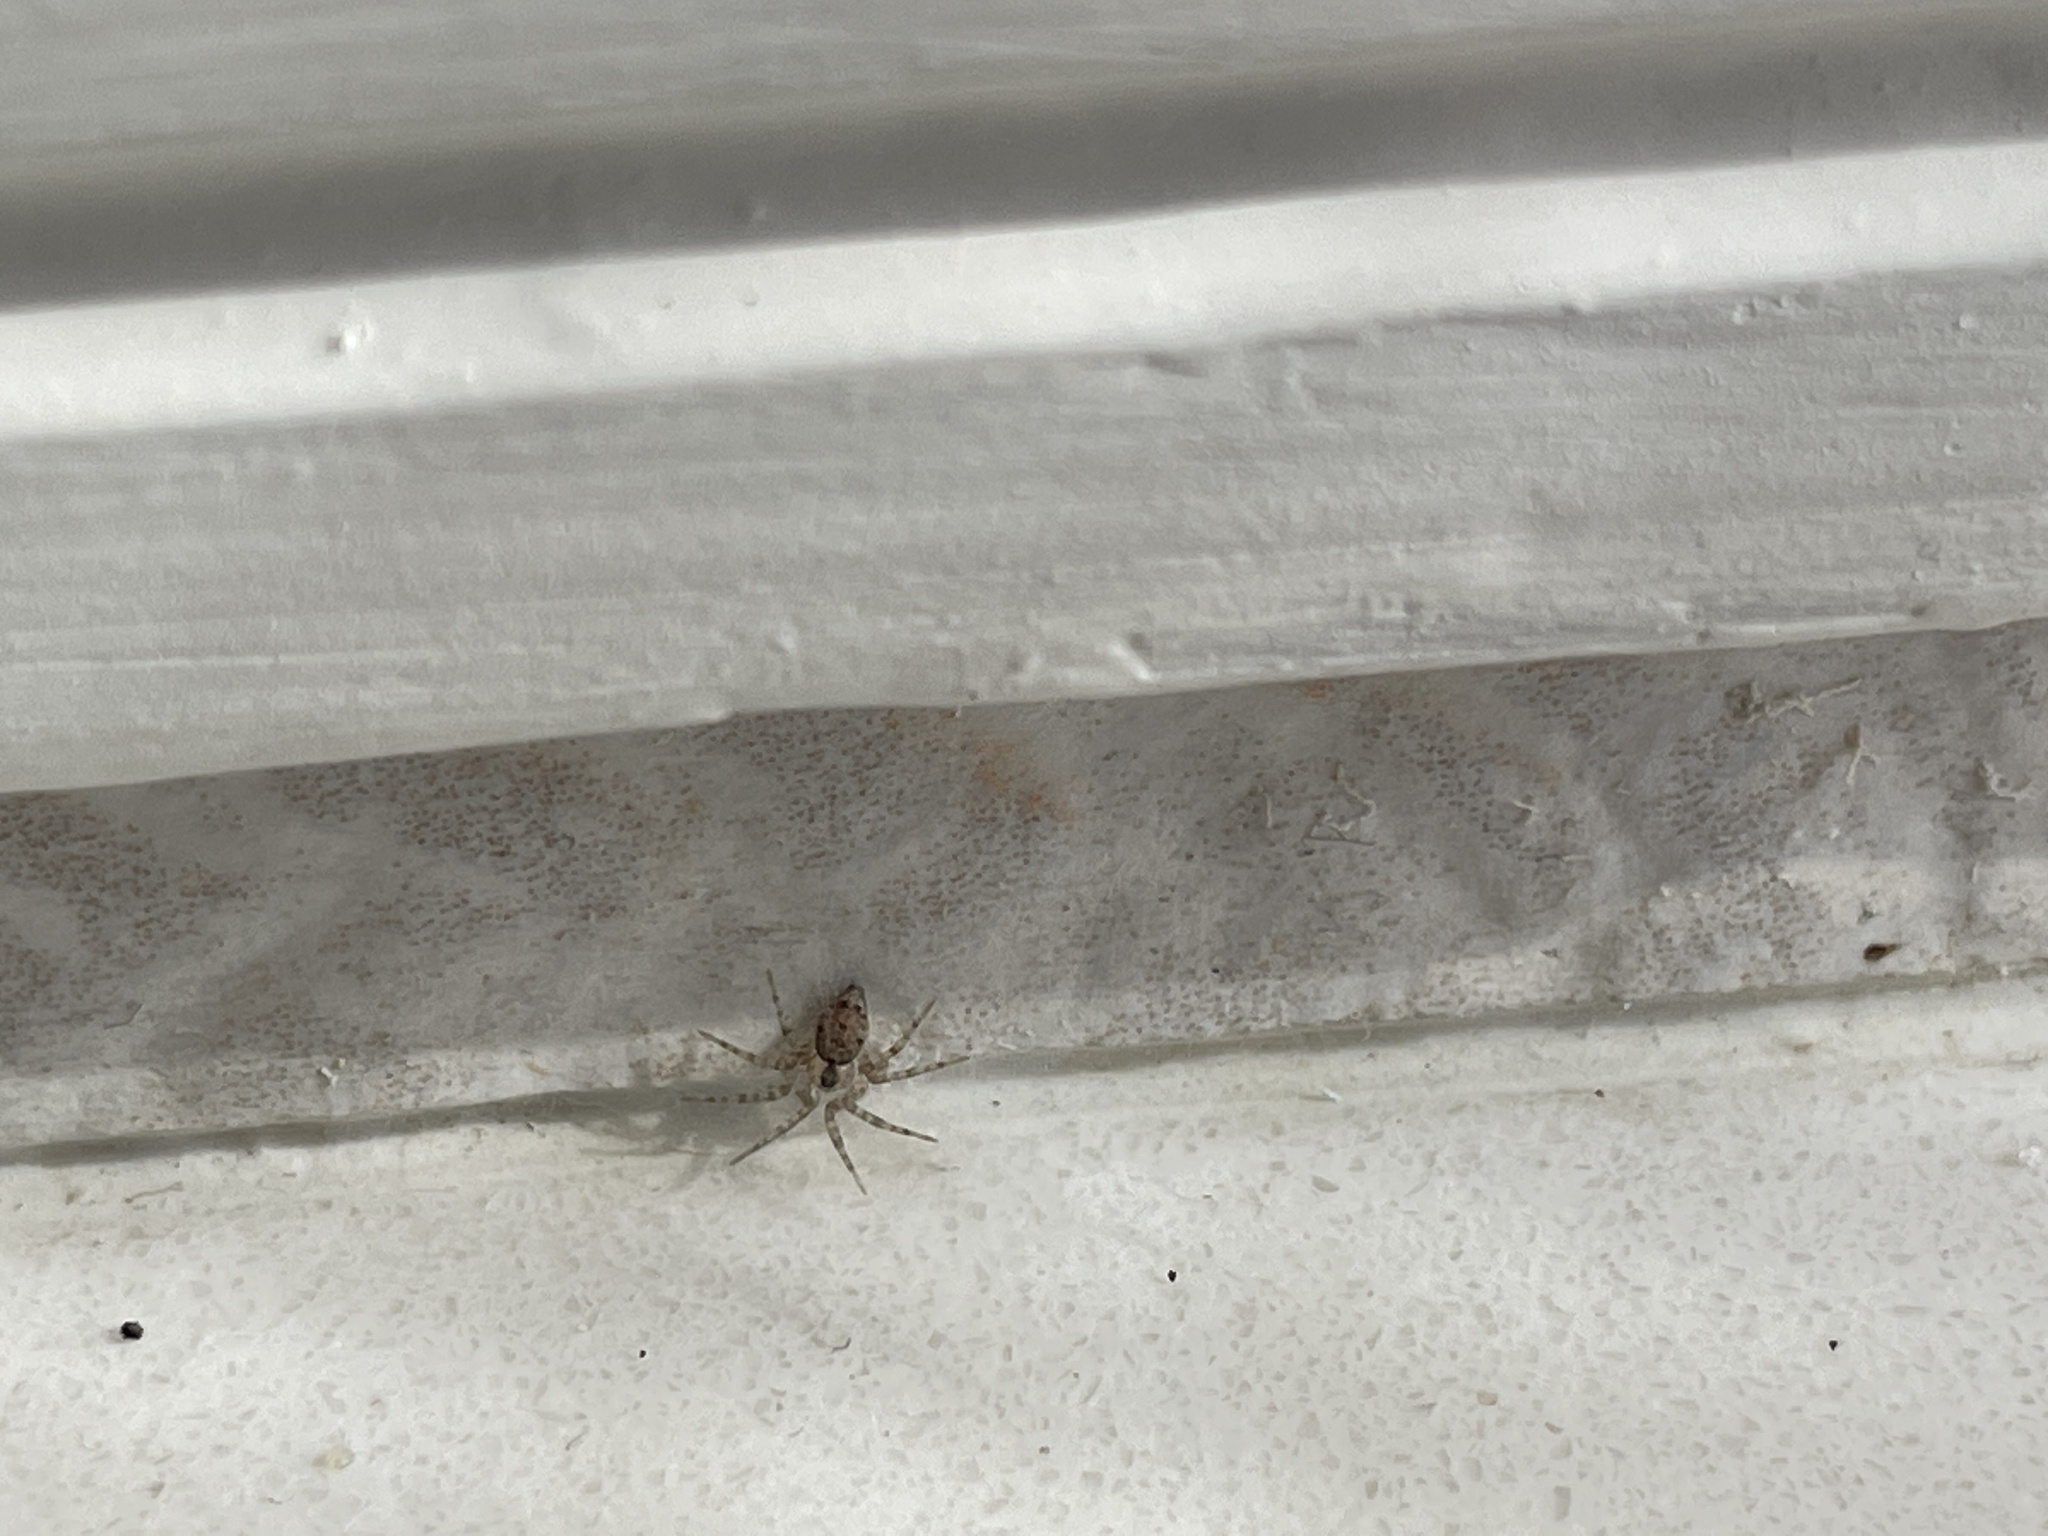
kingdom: Animalia
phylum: Arthropoda
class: Arachnida
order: Araneae
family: Oecobiidae
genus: Oecobius
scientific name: Oecobius navus
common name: Flatmesh weaver
